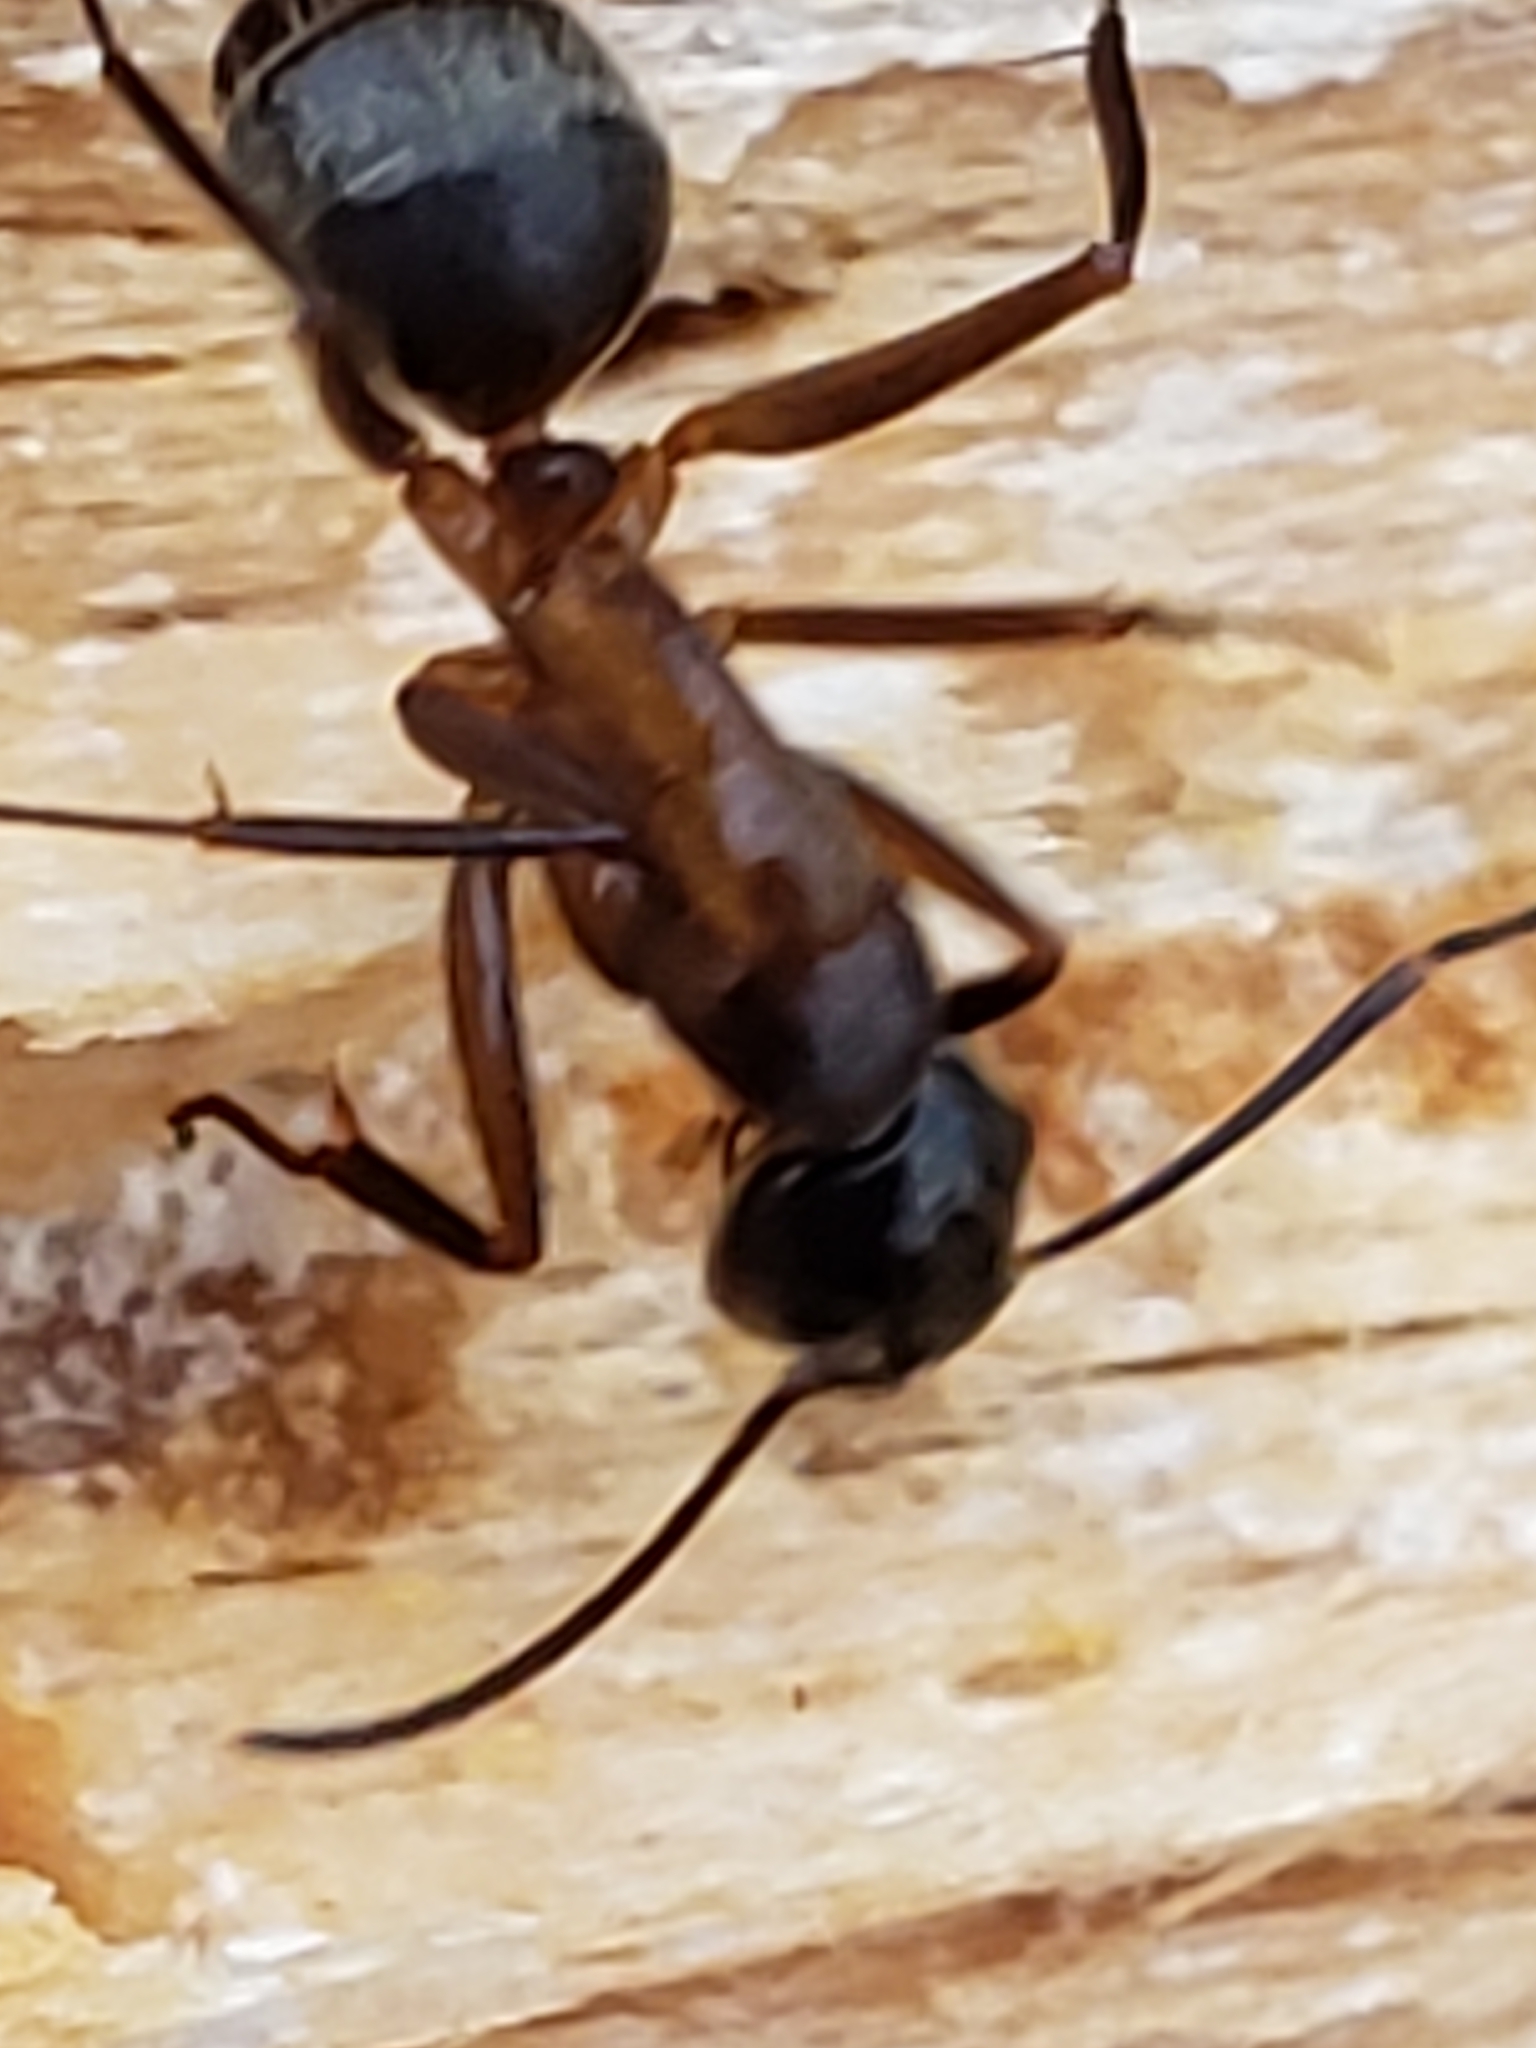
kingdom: Animalia
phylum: Arthropoda
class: Insecta
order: Hymenoptera
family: Formicidae
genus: Camponotus
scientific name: Camponotus chromaiodes
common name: Red carpenter ant
